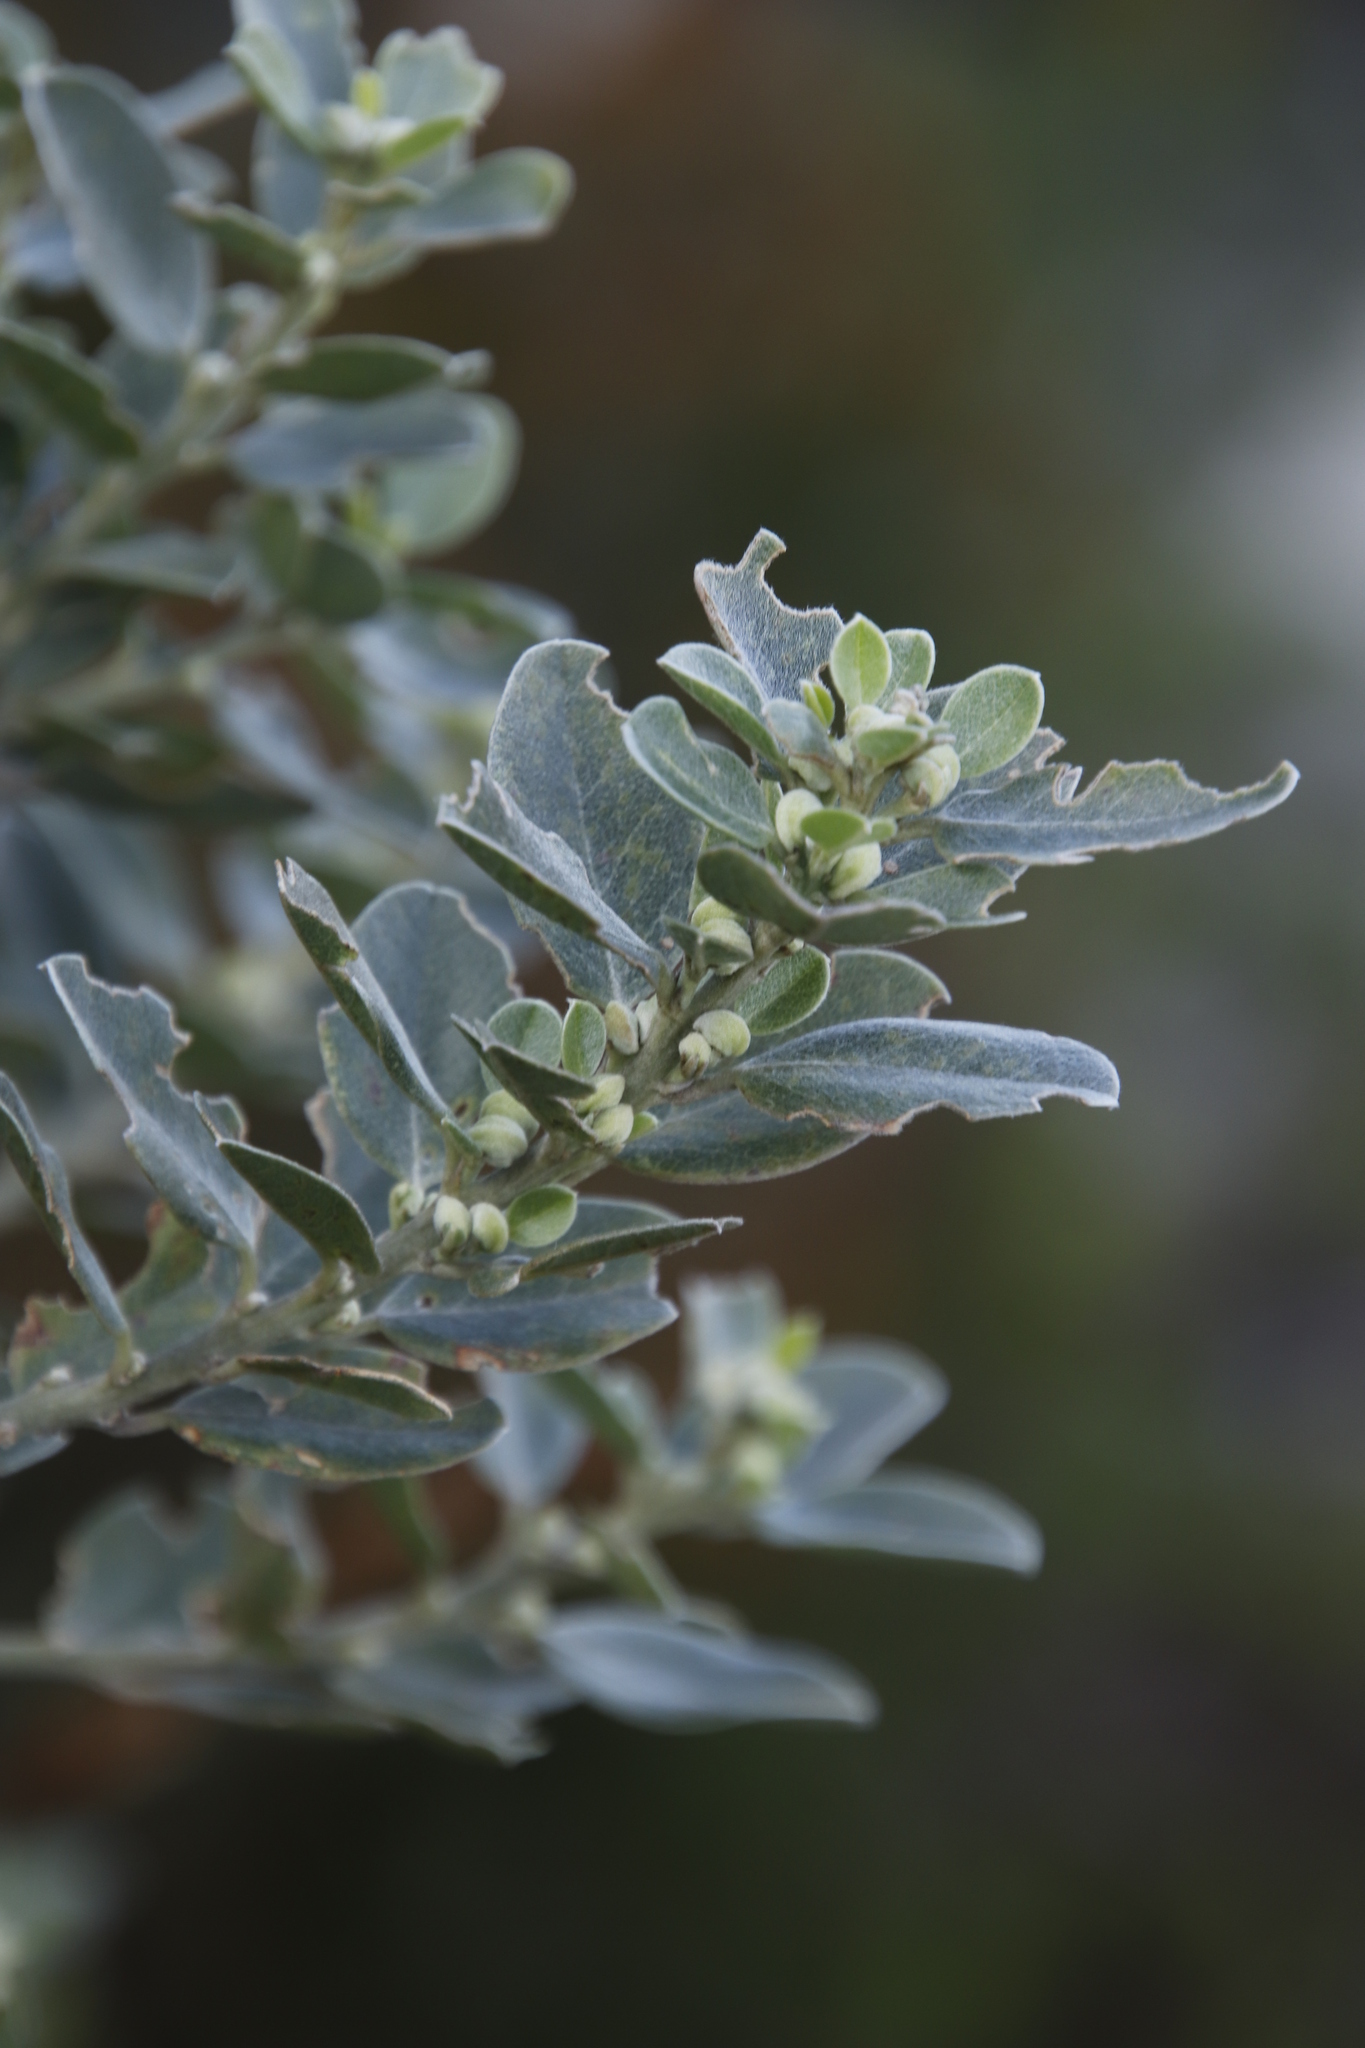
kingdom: Plantae
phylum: Tracheophyta
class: Magnoliopsida
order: Fabales
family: Fabaceae
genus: Podalyria
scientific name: Podalyria sericea
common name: Silver podalyria
